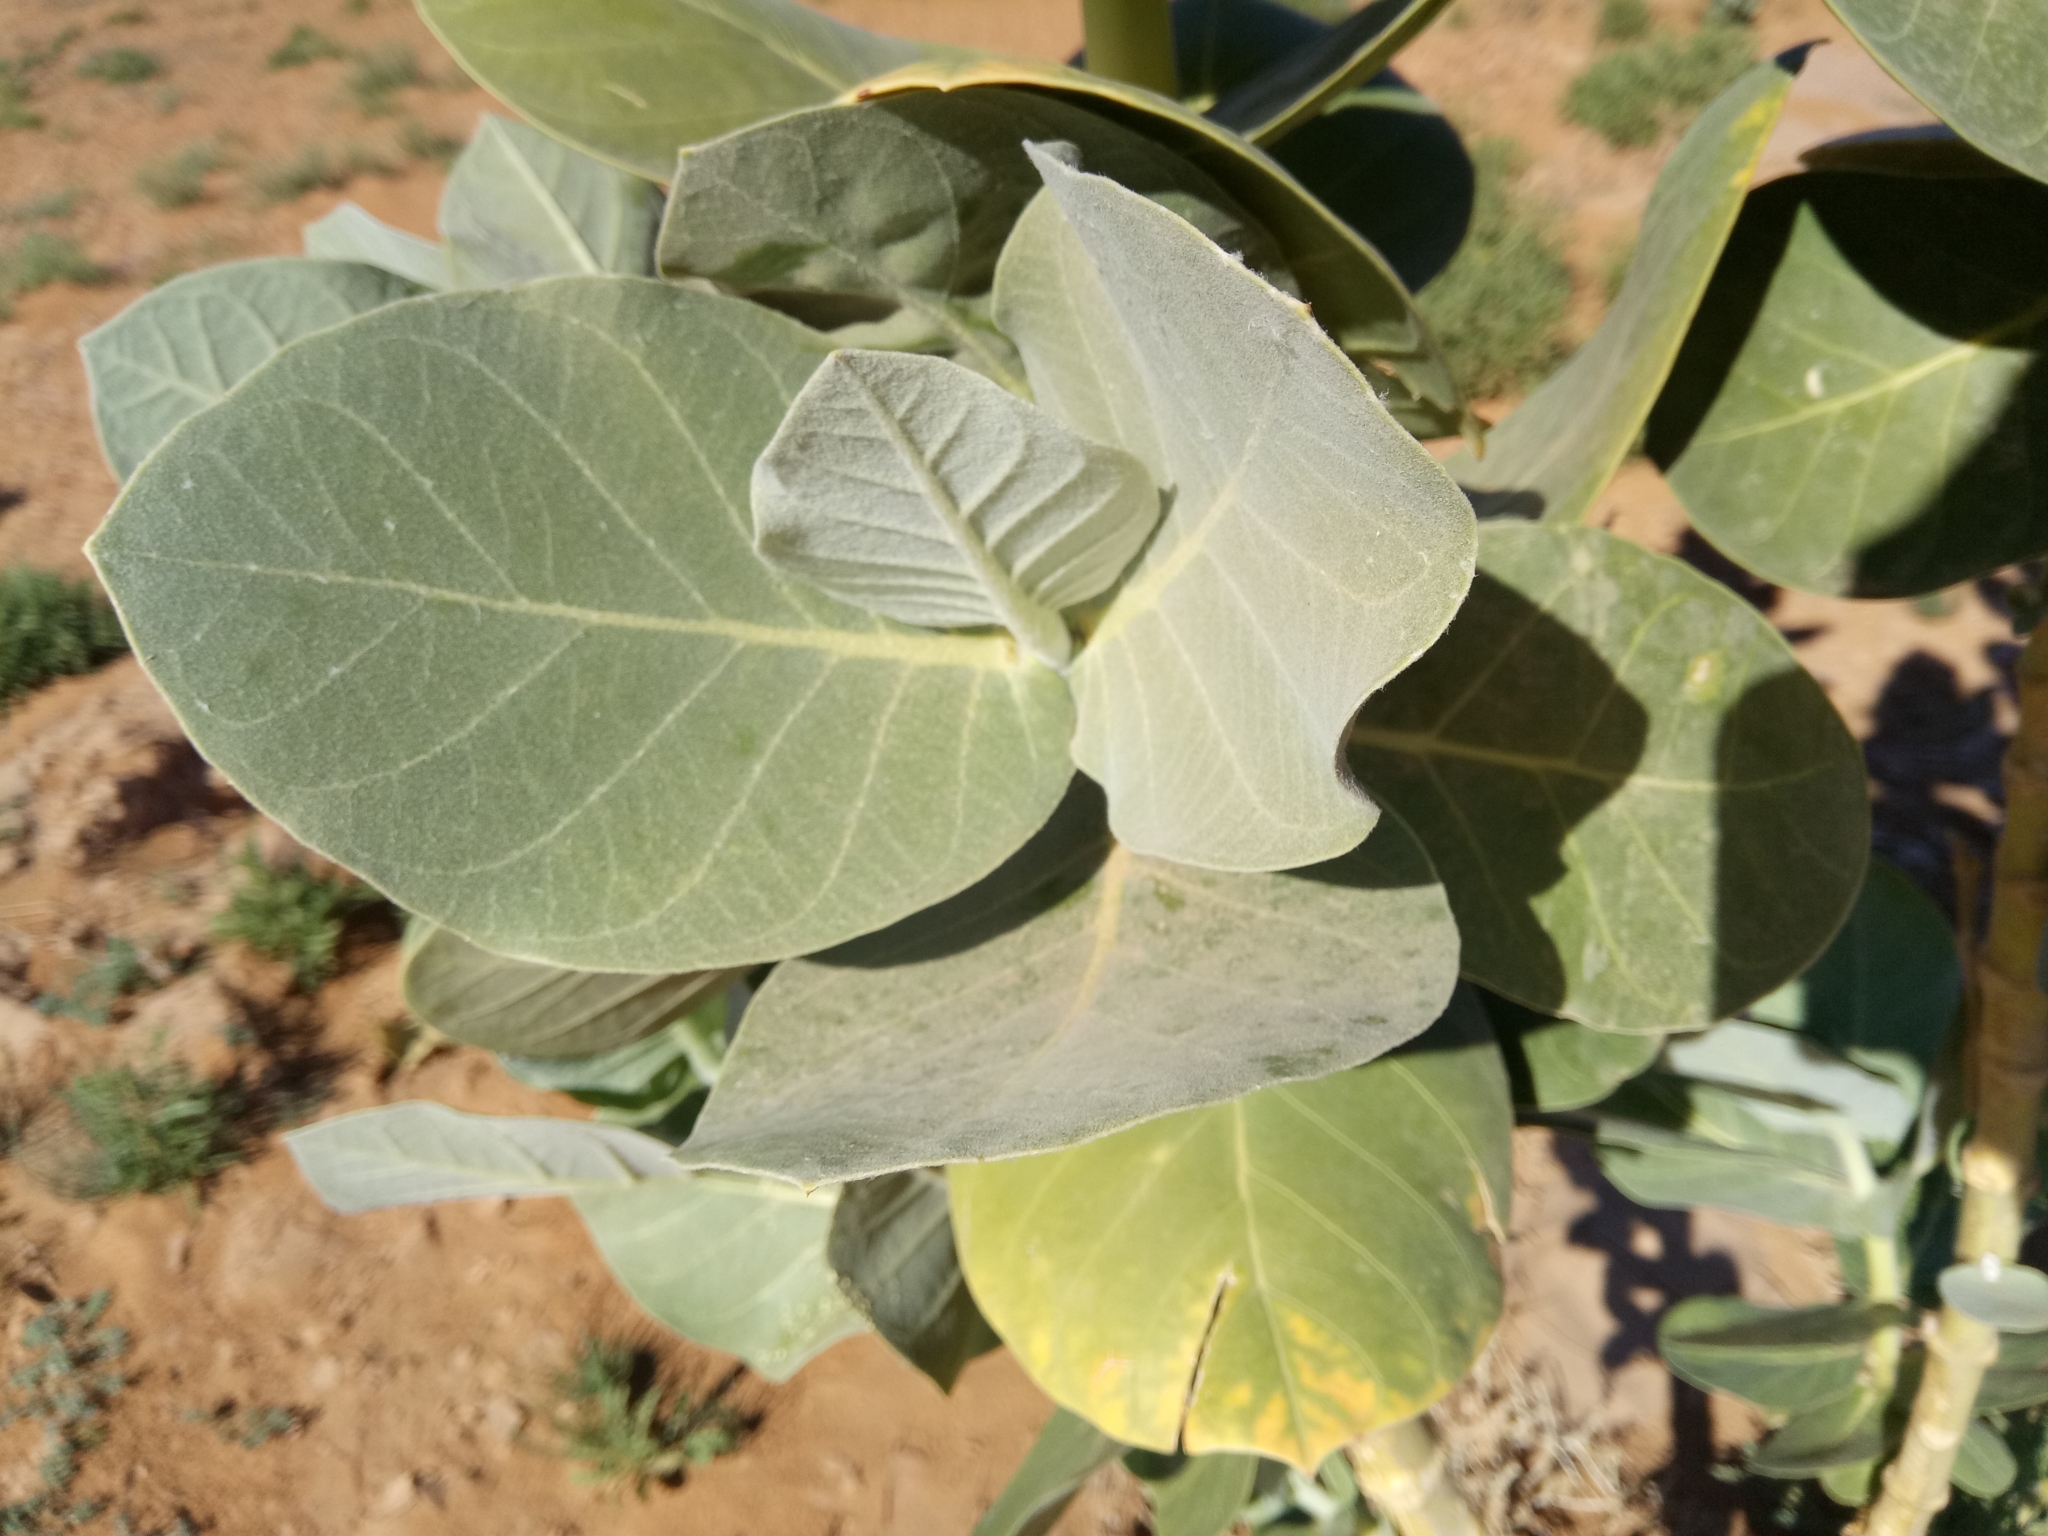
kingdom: Plantae
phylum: Tracheophyta
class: Magnoliopsida
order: Gentianales
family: Apocynaceae
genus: Calotropis
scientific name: Calotropis procera
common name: Roostertree
